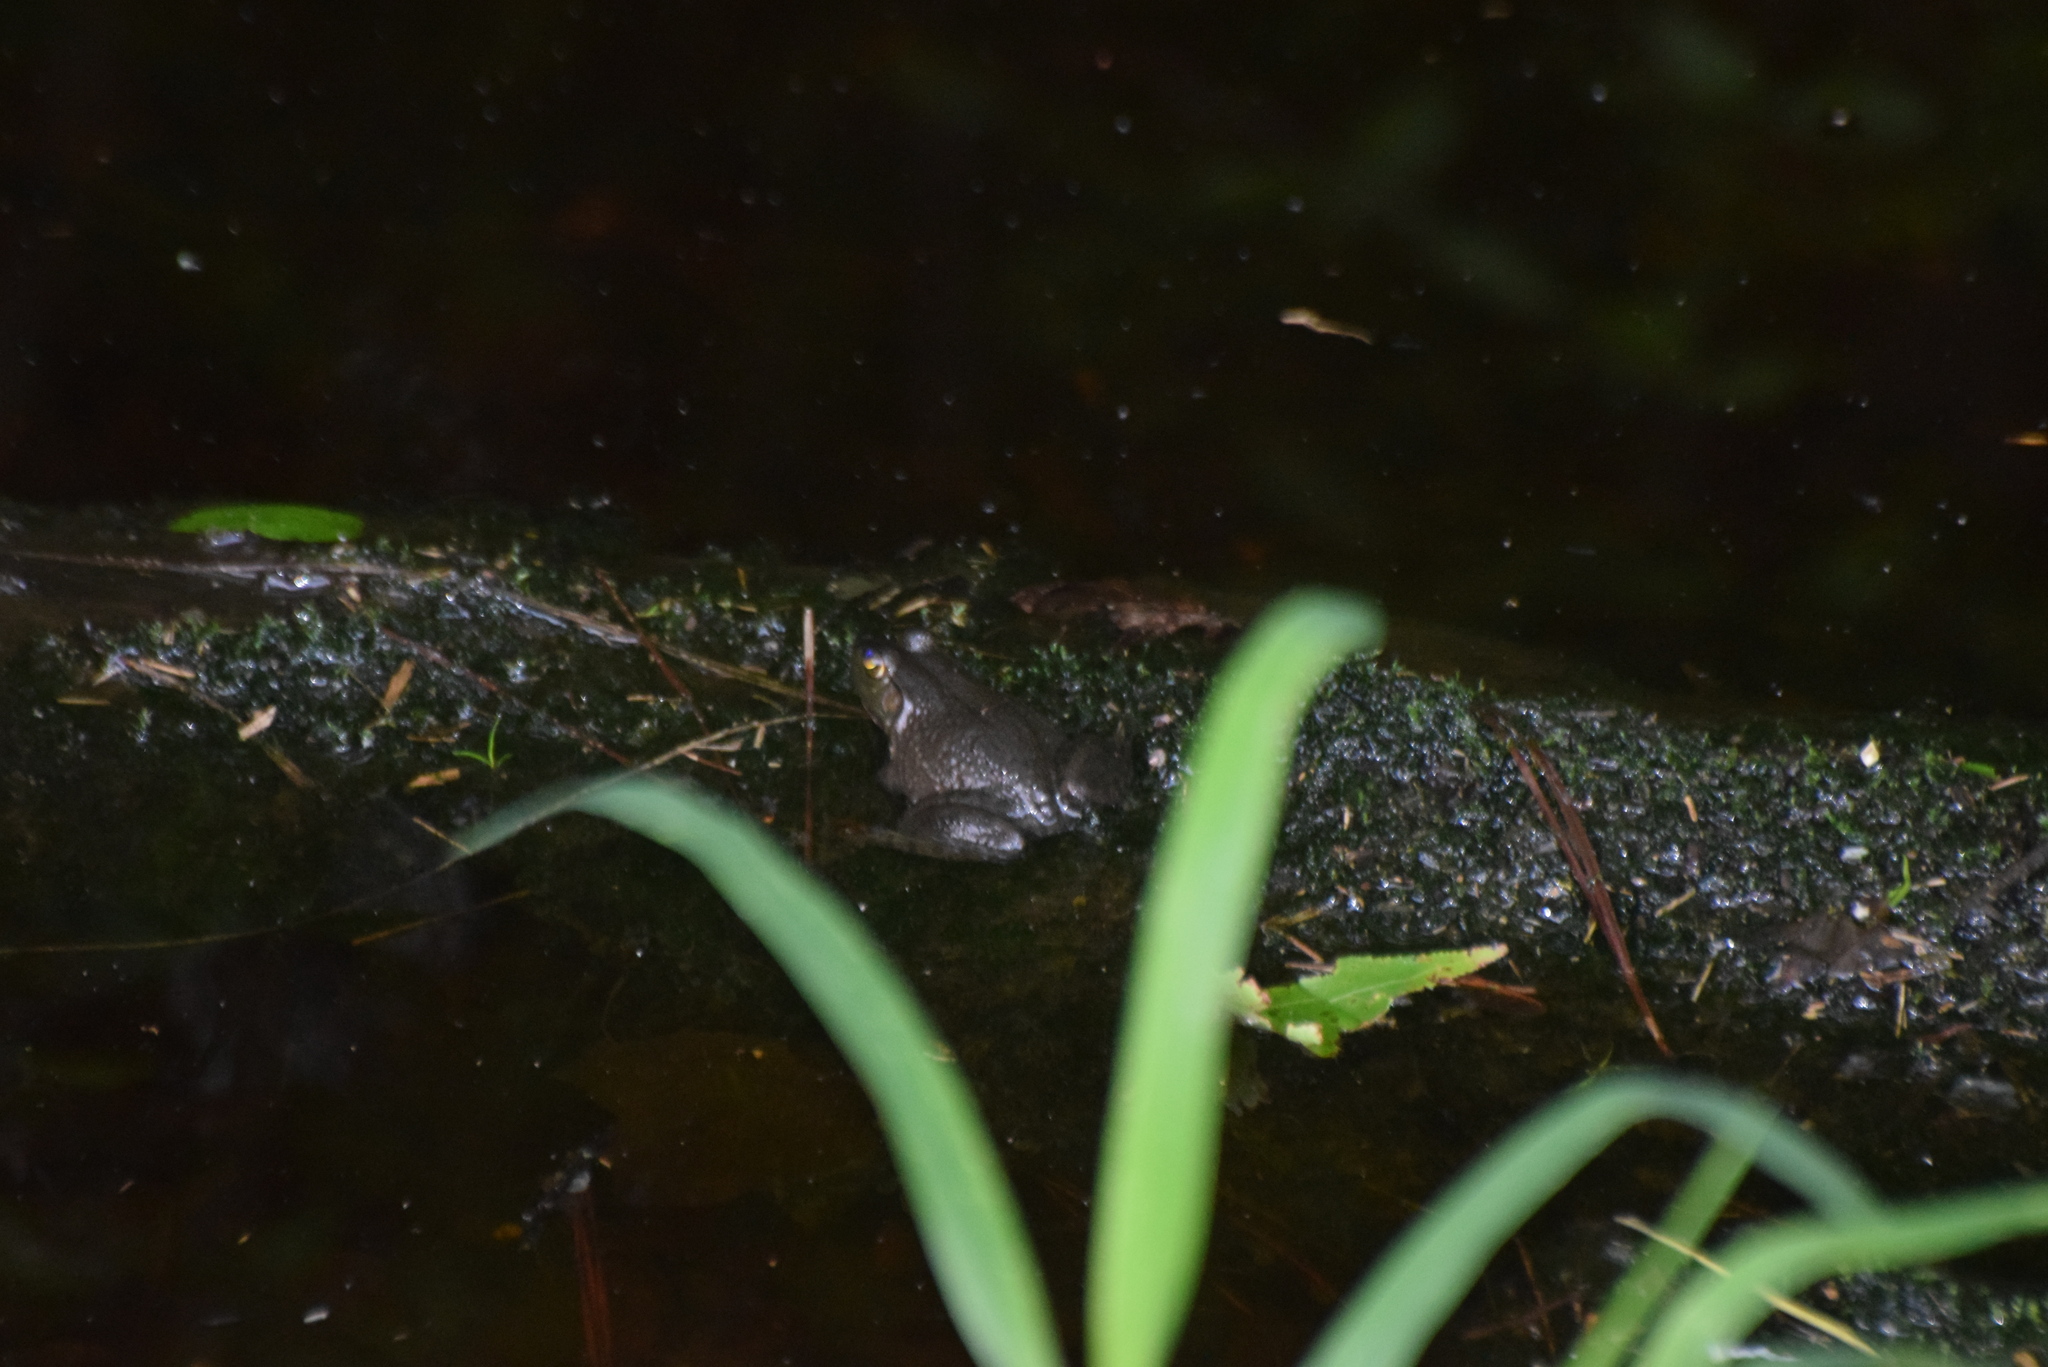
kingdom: Animalia
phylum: Chordata
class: Amphibia
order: Anura
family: Ranidae
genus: Lithobates
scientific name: Lithobates catesbeianus
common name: American bullfrog
